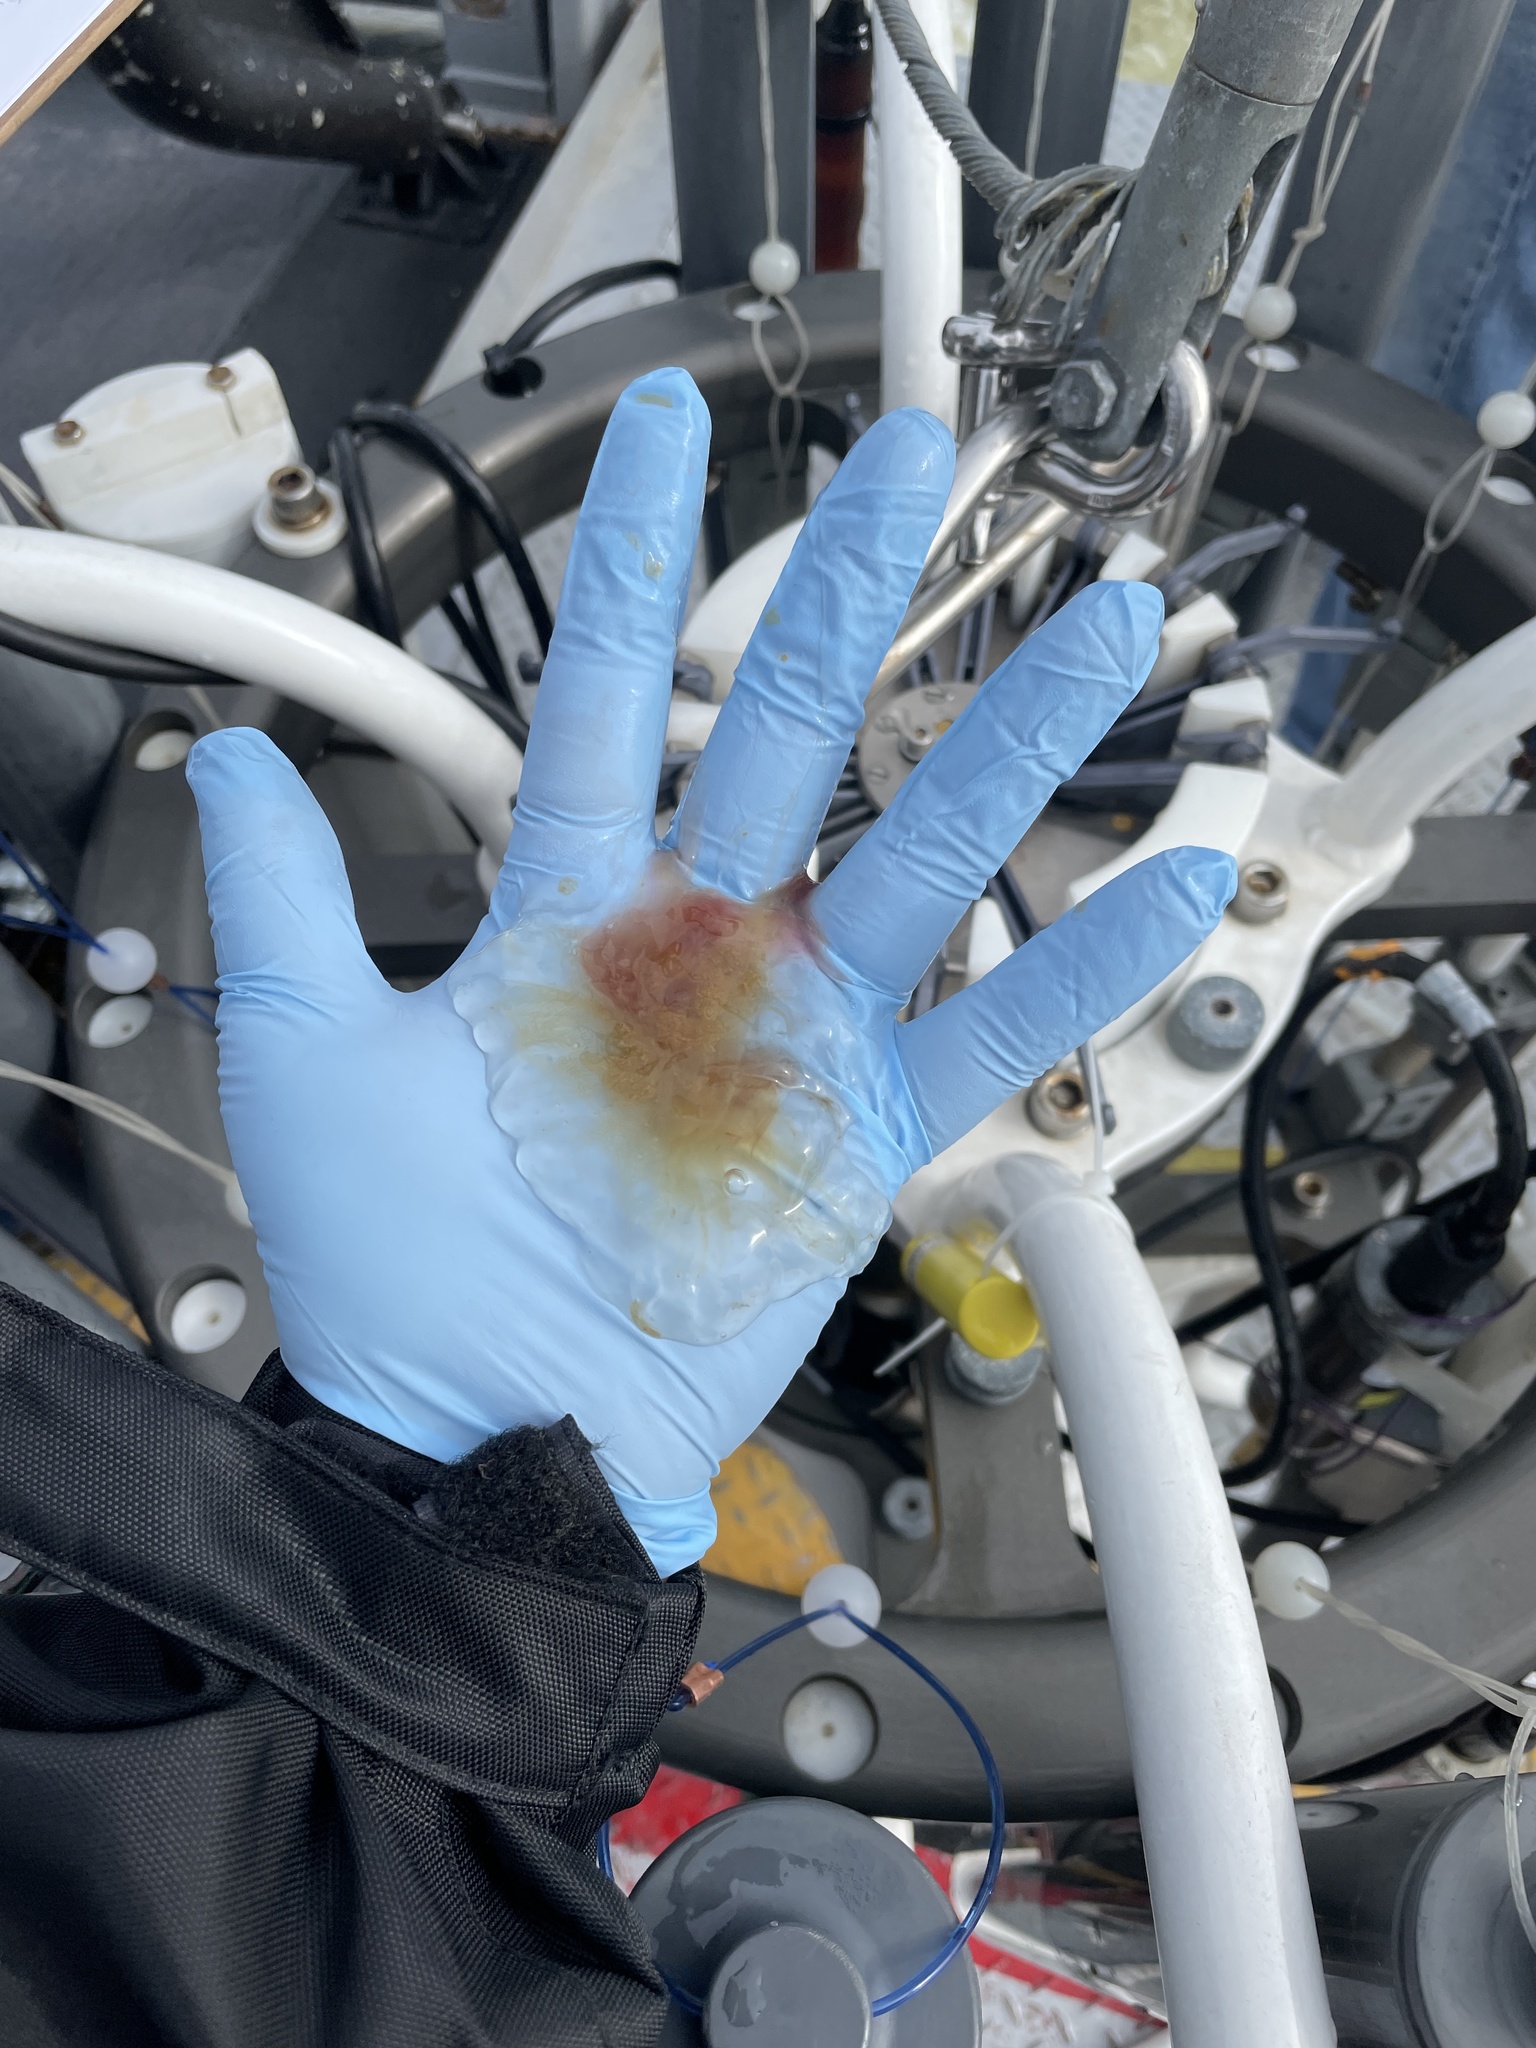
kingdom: Animalia
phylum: Cnidaria
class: Scyphozoa
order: Semaeostomeae
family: Cyaneidae
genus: Cyanea
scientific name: Cyanea capillata
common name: Lion's mane jellyfish
